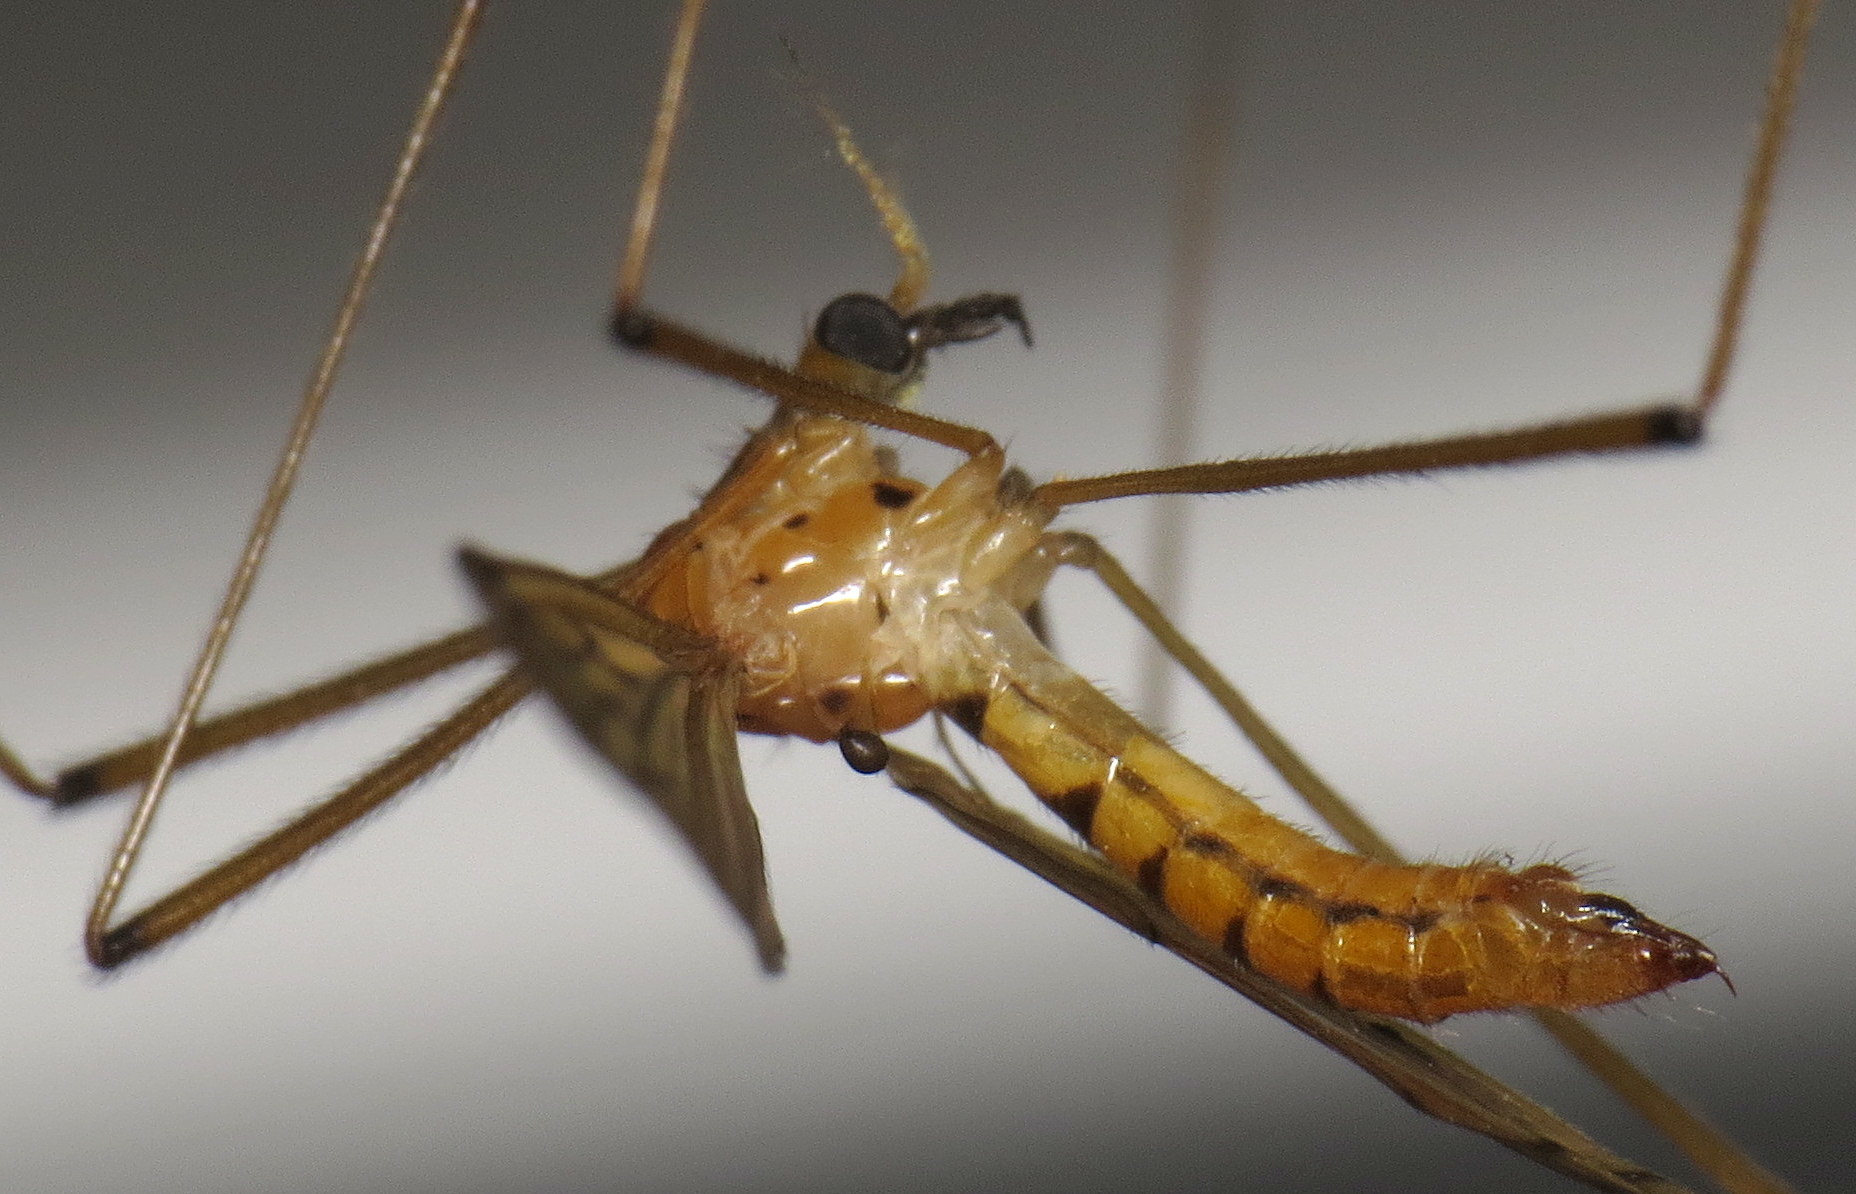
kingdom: Animalia
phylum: Arthropoda
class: Insecta
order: Diptera
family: Limoniidae
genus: Metalimnobia
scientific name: Metalimnobia triocellata
